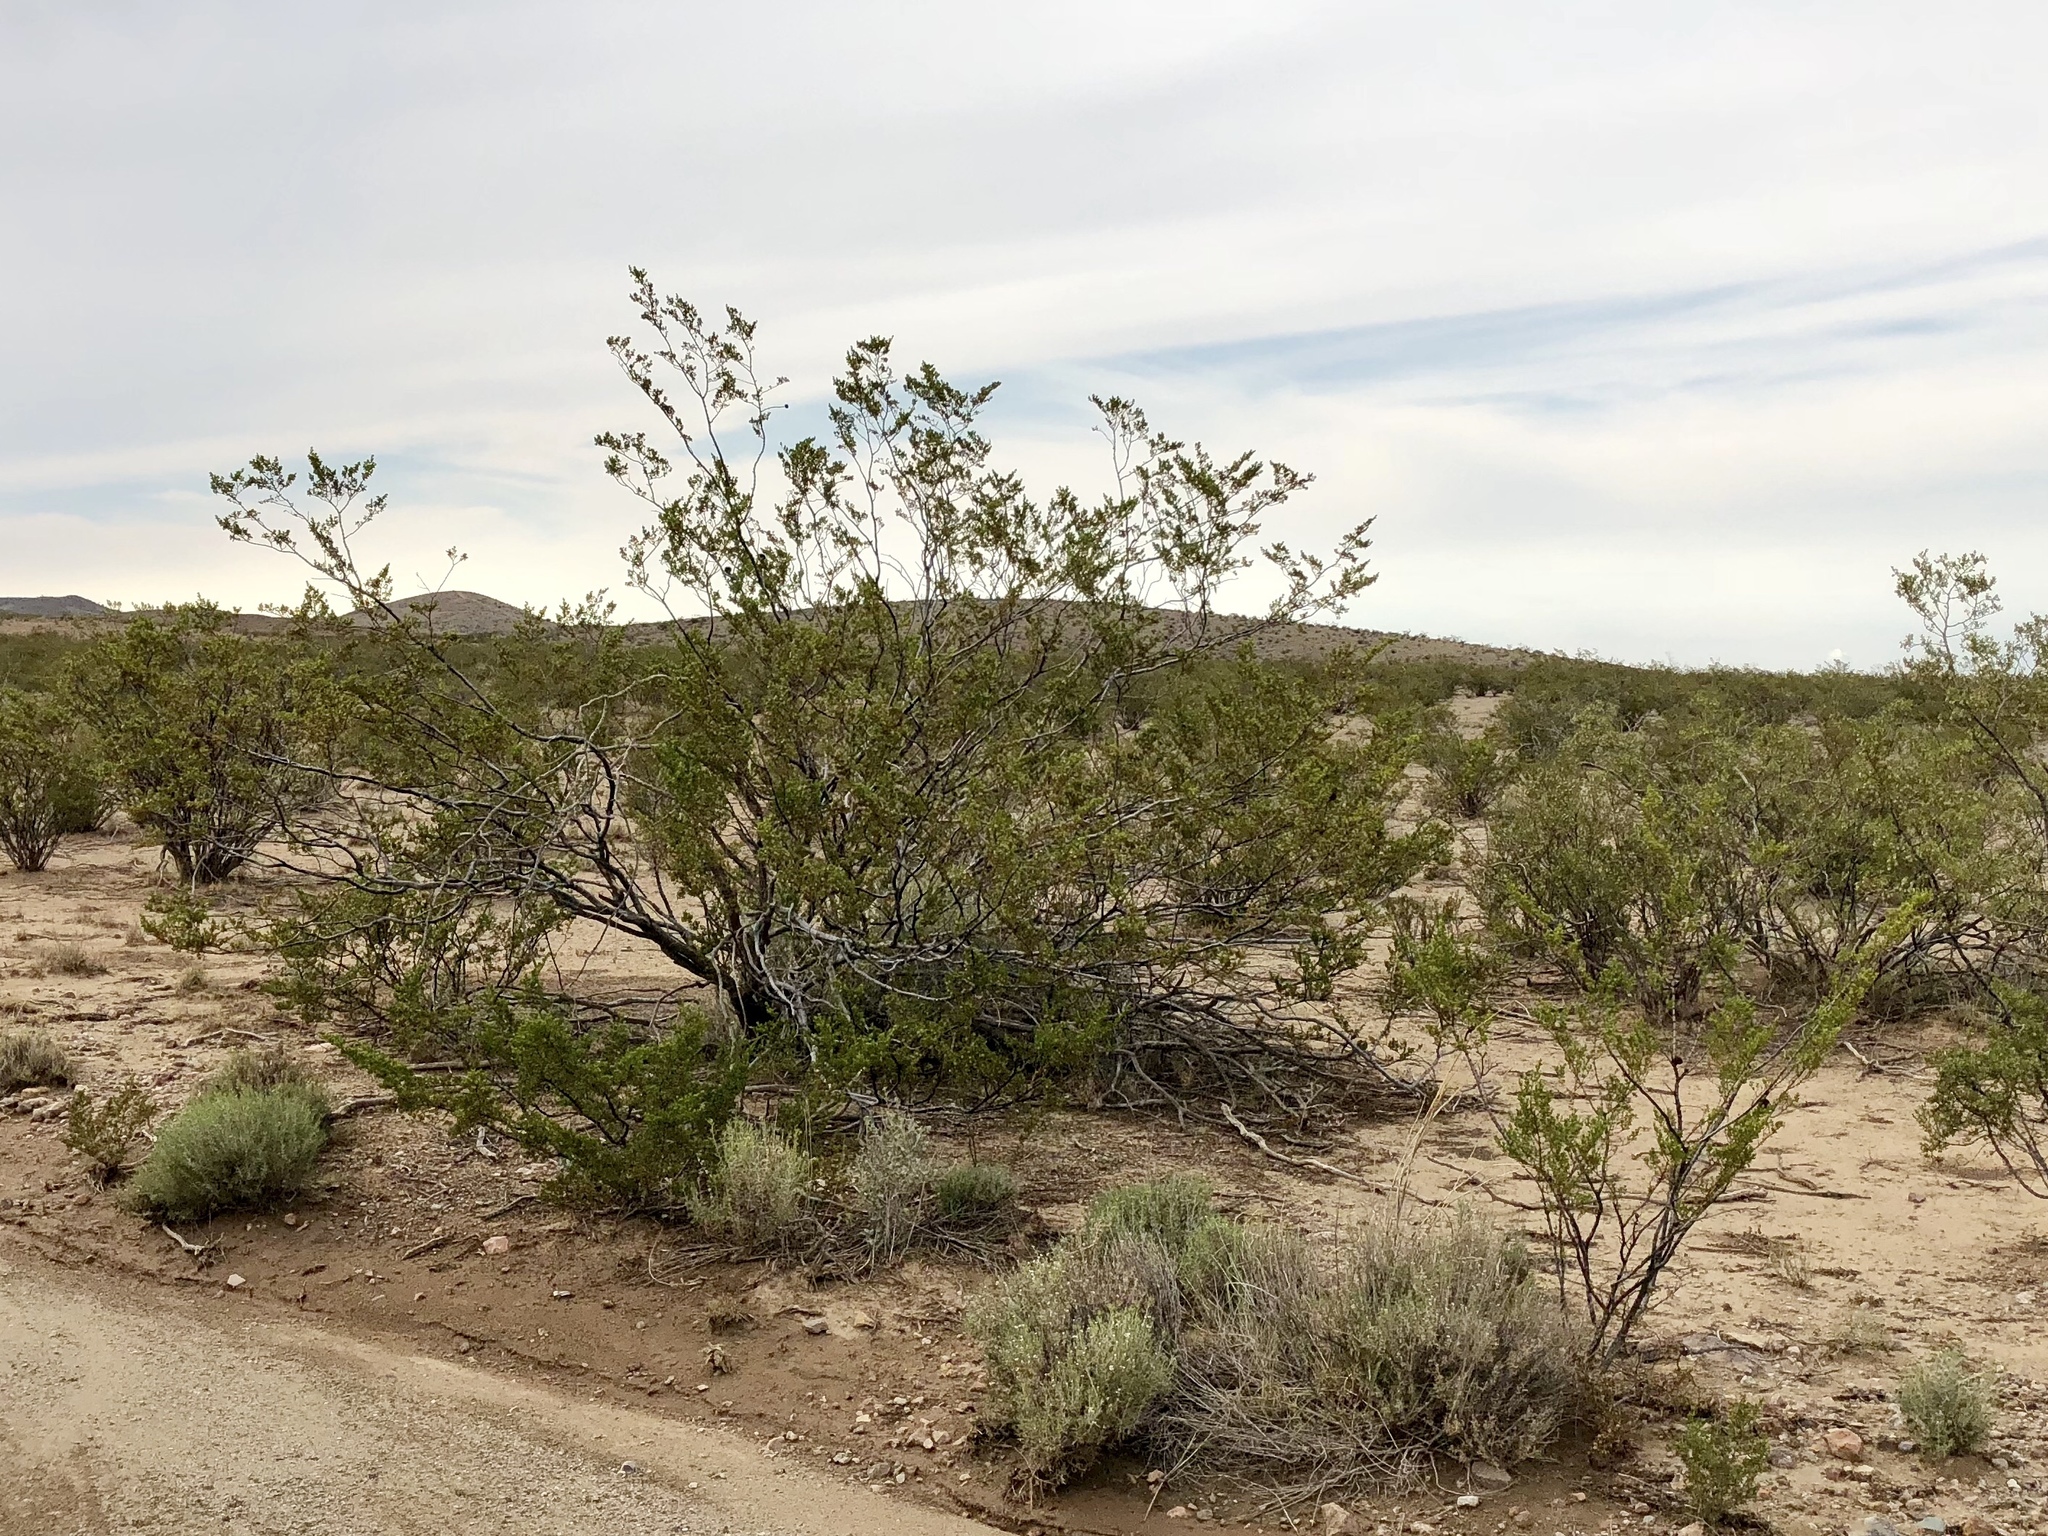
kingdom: Plantae
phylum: Tracheophyta
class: Magnoliopsida
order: Zygophyllales
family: Zygophyllaceae
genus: Larrea
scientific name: Larrea tridentata
